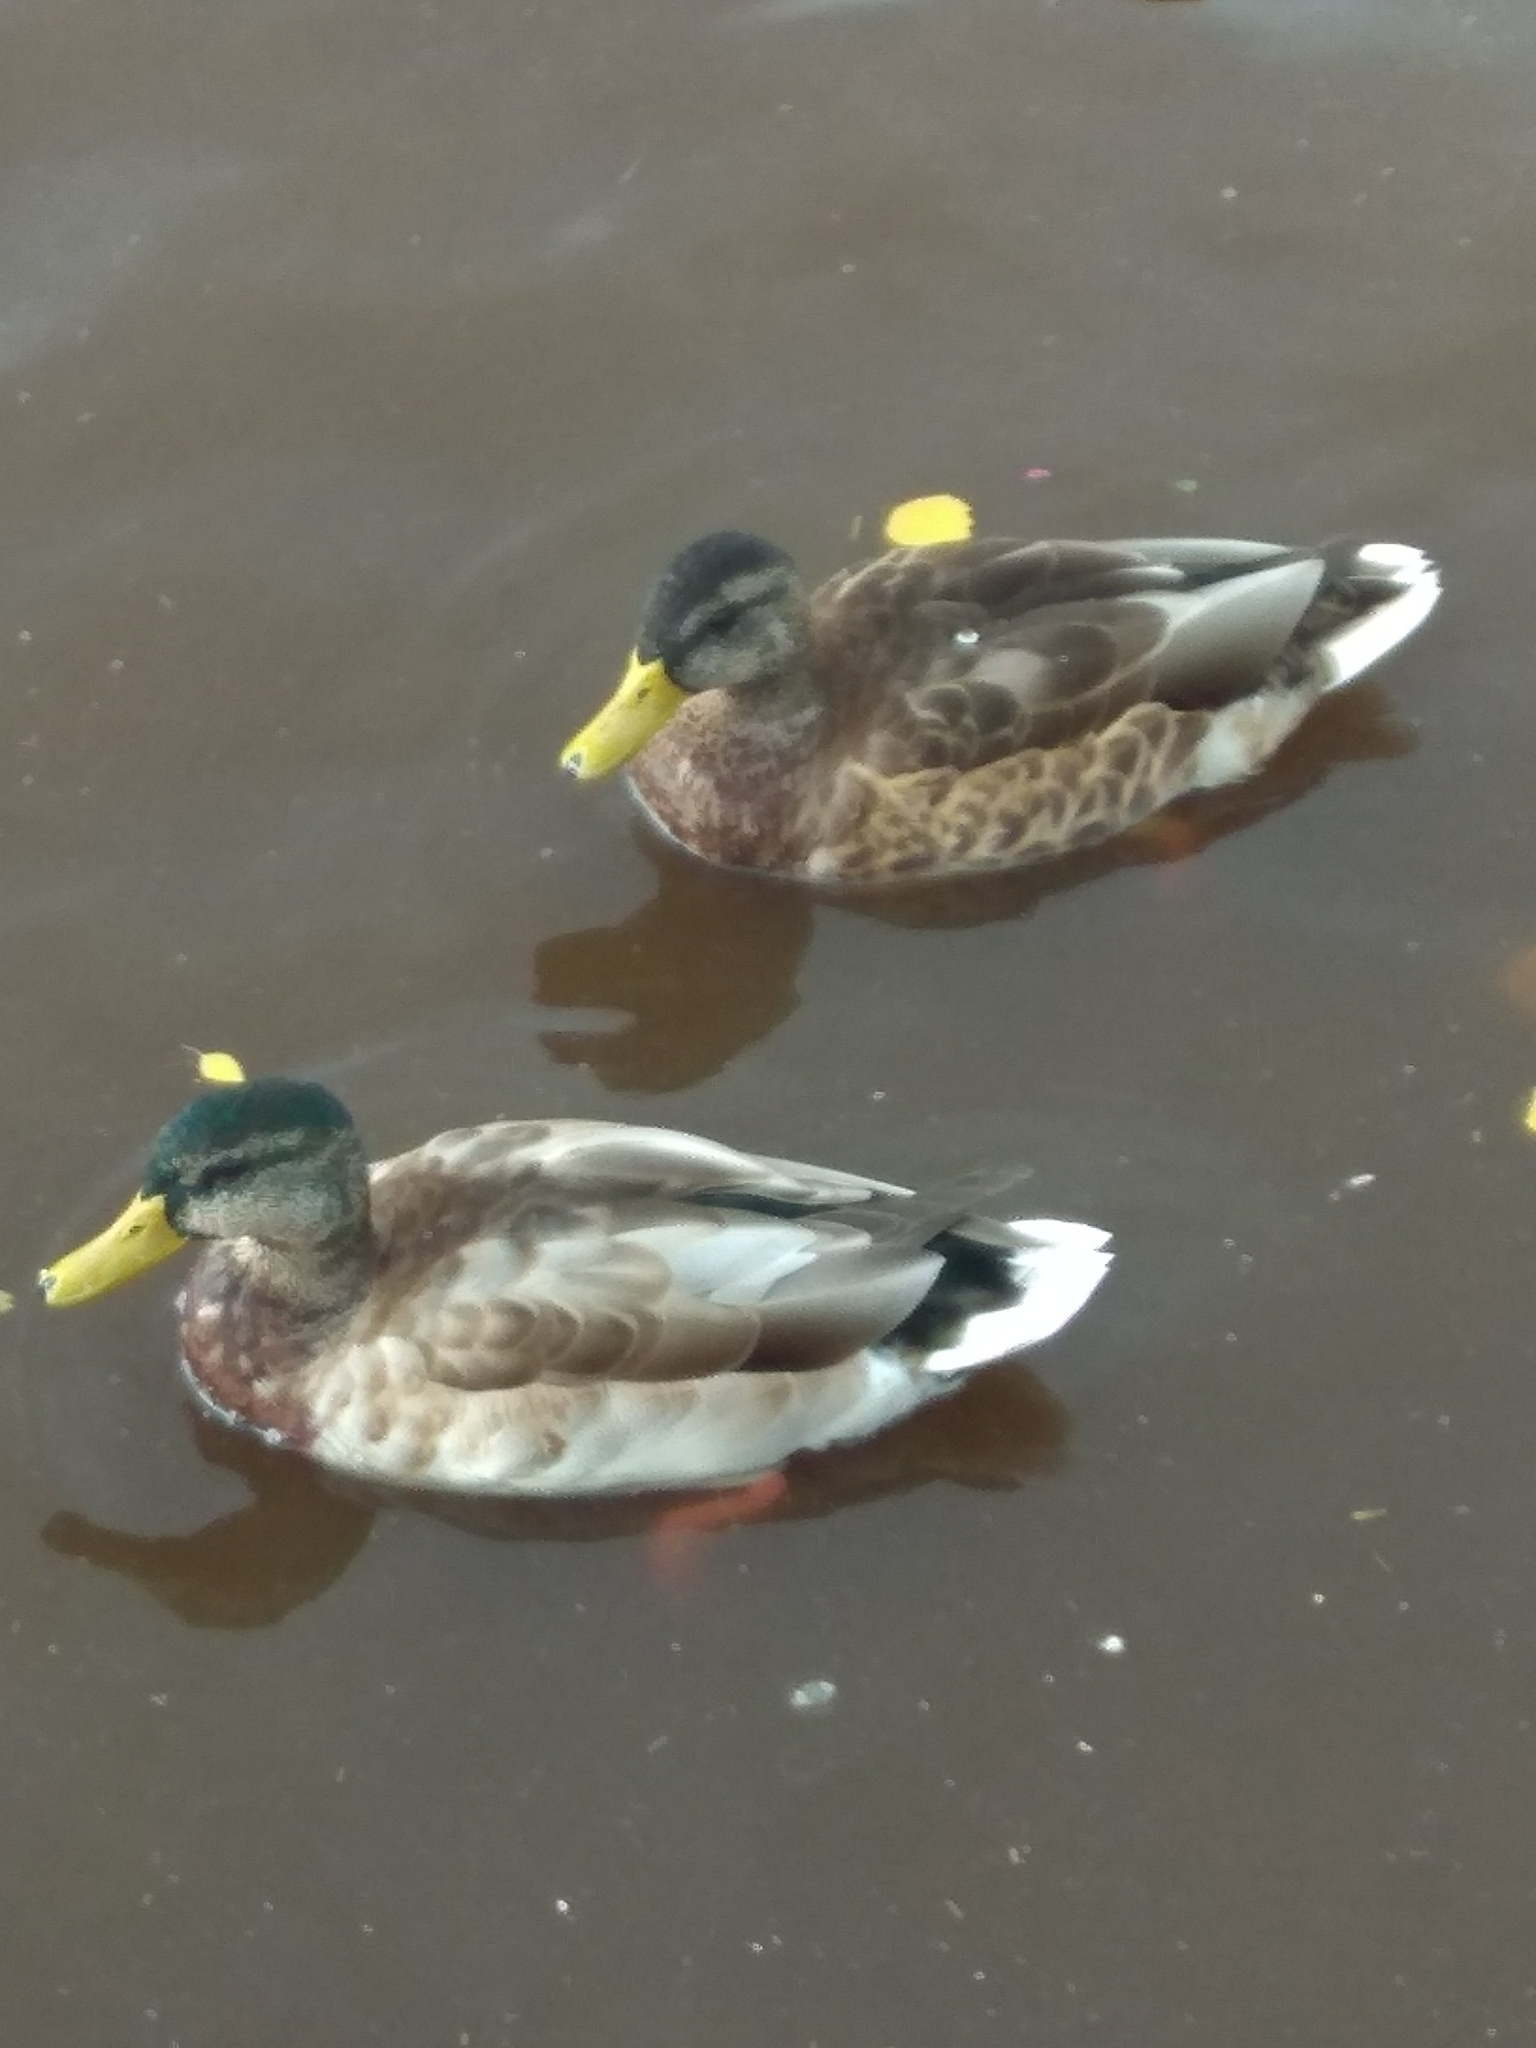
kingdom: Animalia
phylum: Chordata
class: Aves
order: Anseriformes
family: Anatidae
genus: Anas
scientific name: Anas platyrhynchos
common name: Mallard
